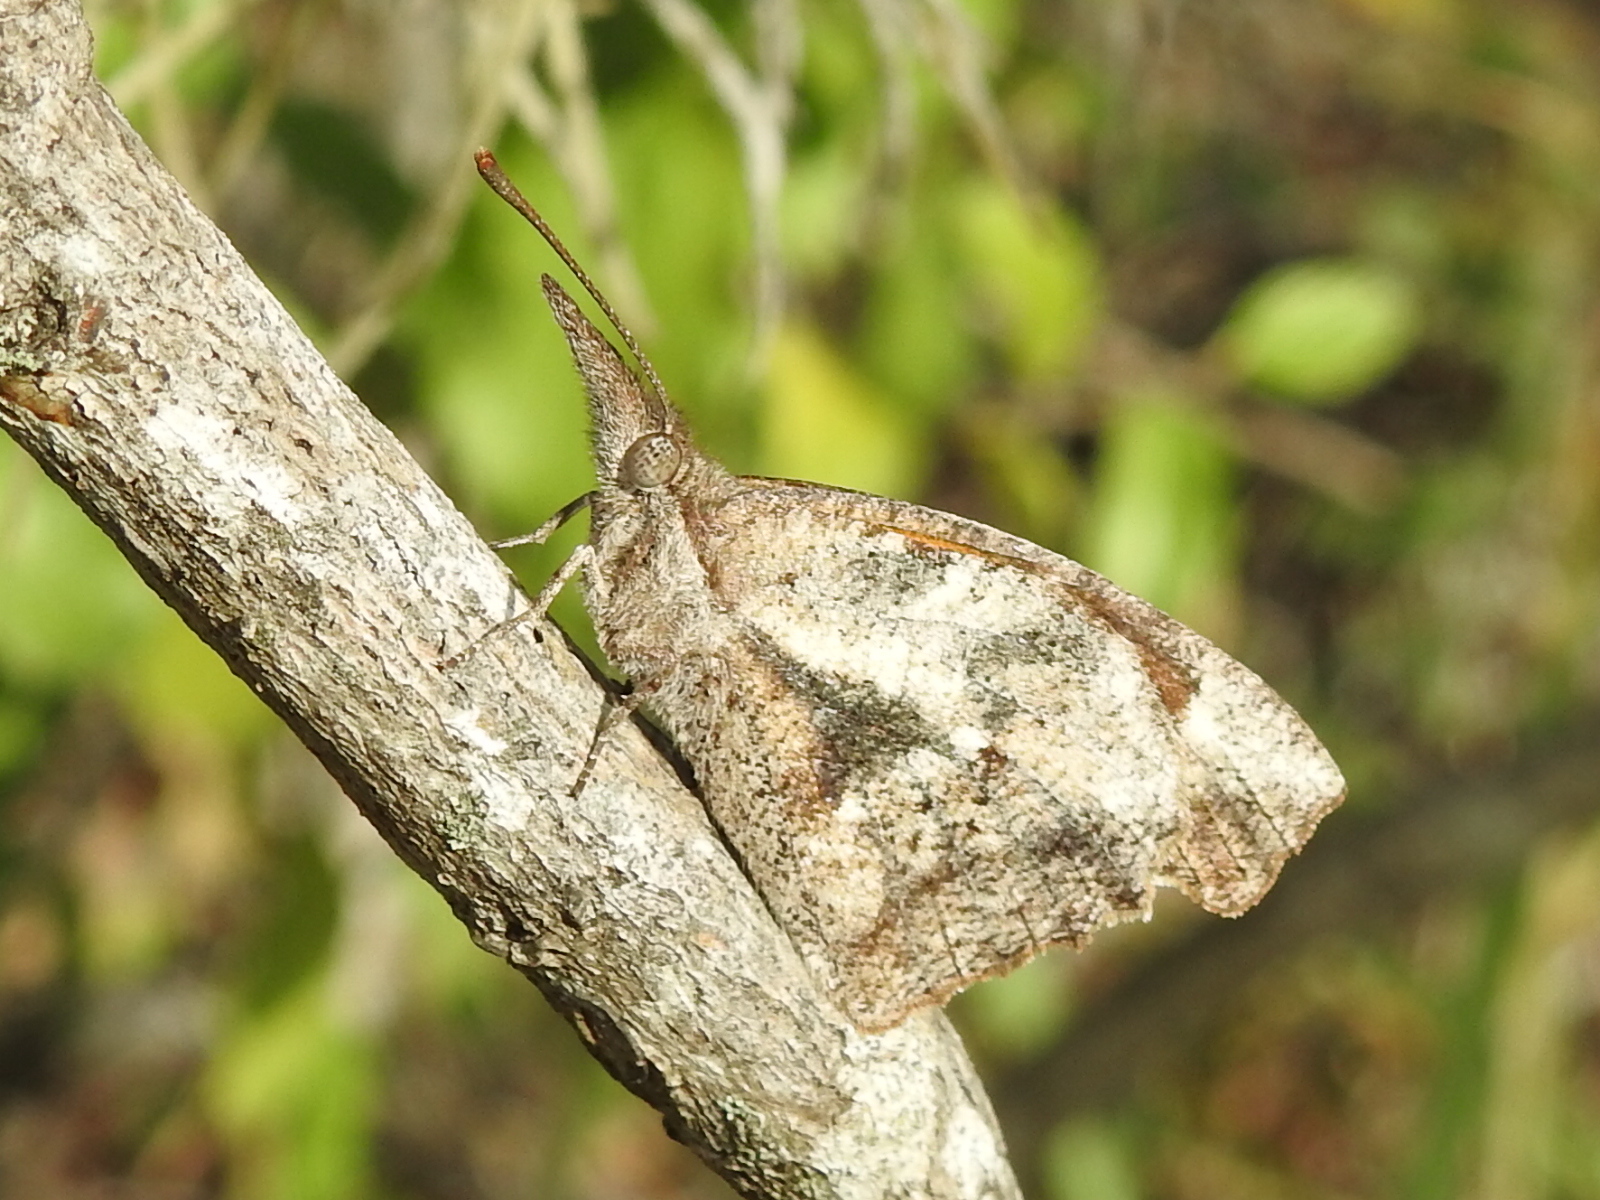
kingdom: Animalia
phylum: Arthropoda
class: Insecta
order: Lepidoptera
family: Nymphalidae
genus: Libytheana
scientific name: Libytheana carinenta
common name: American snout
